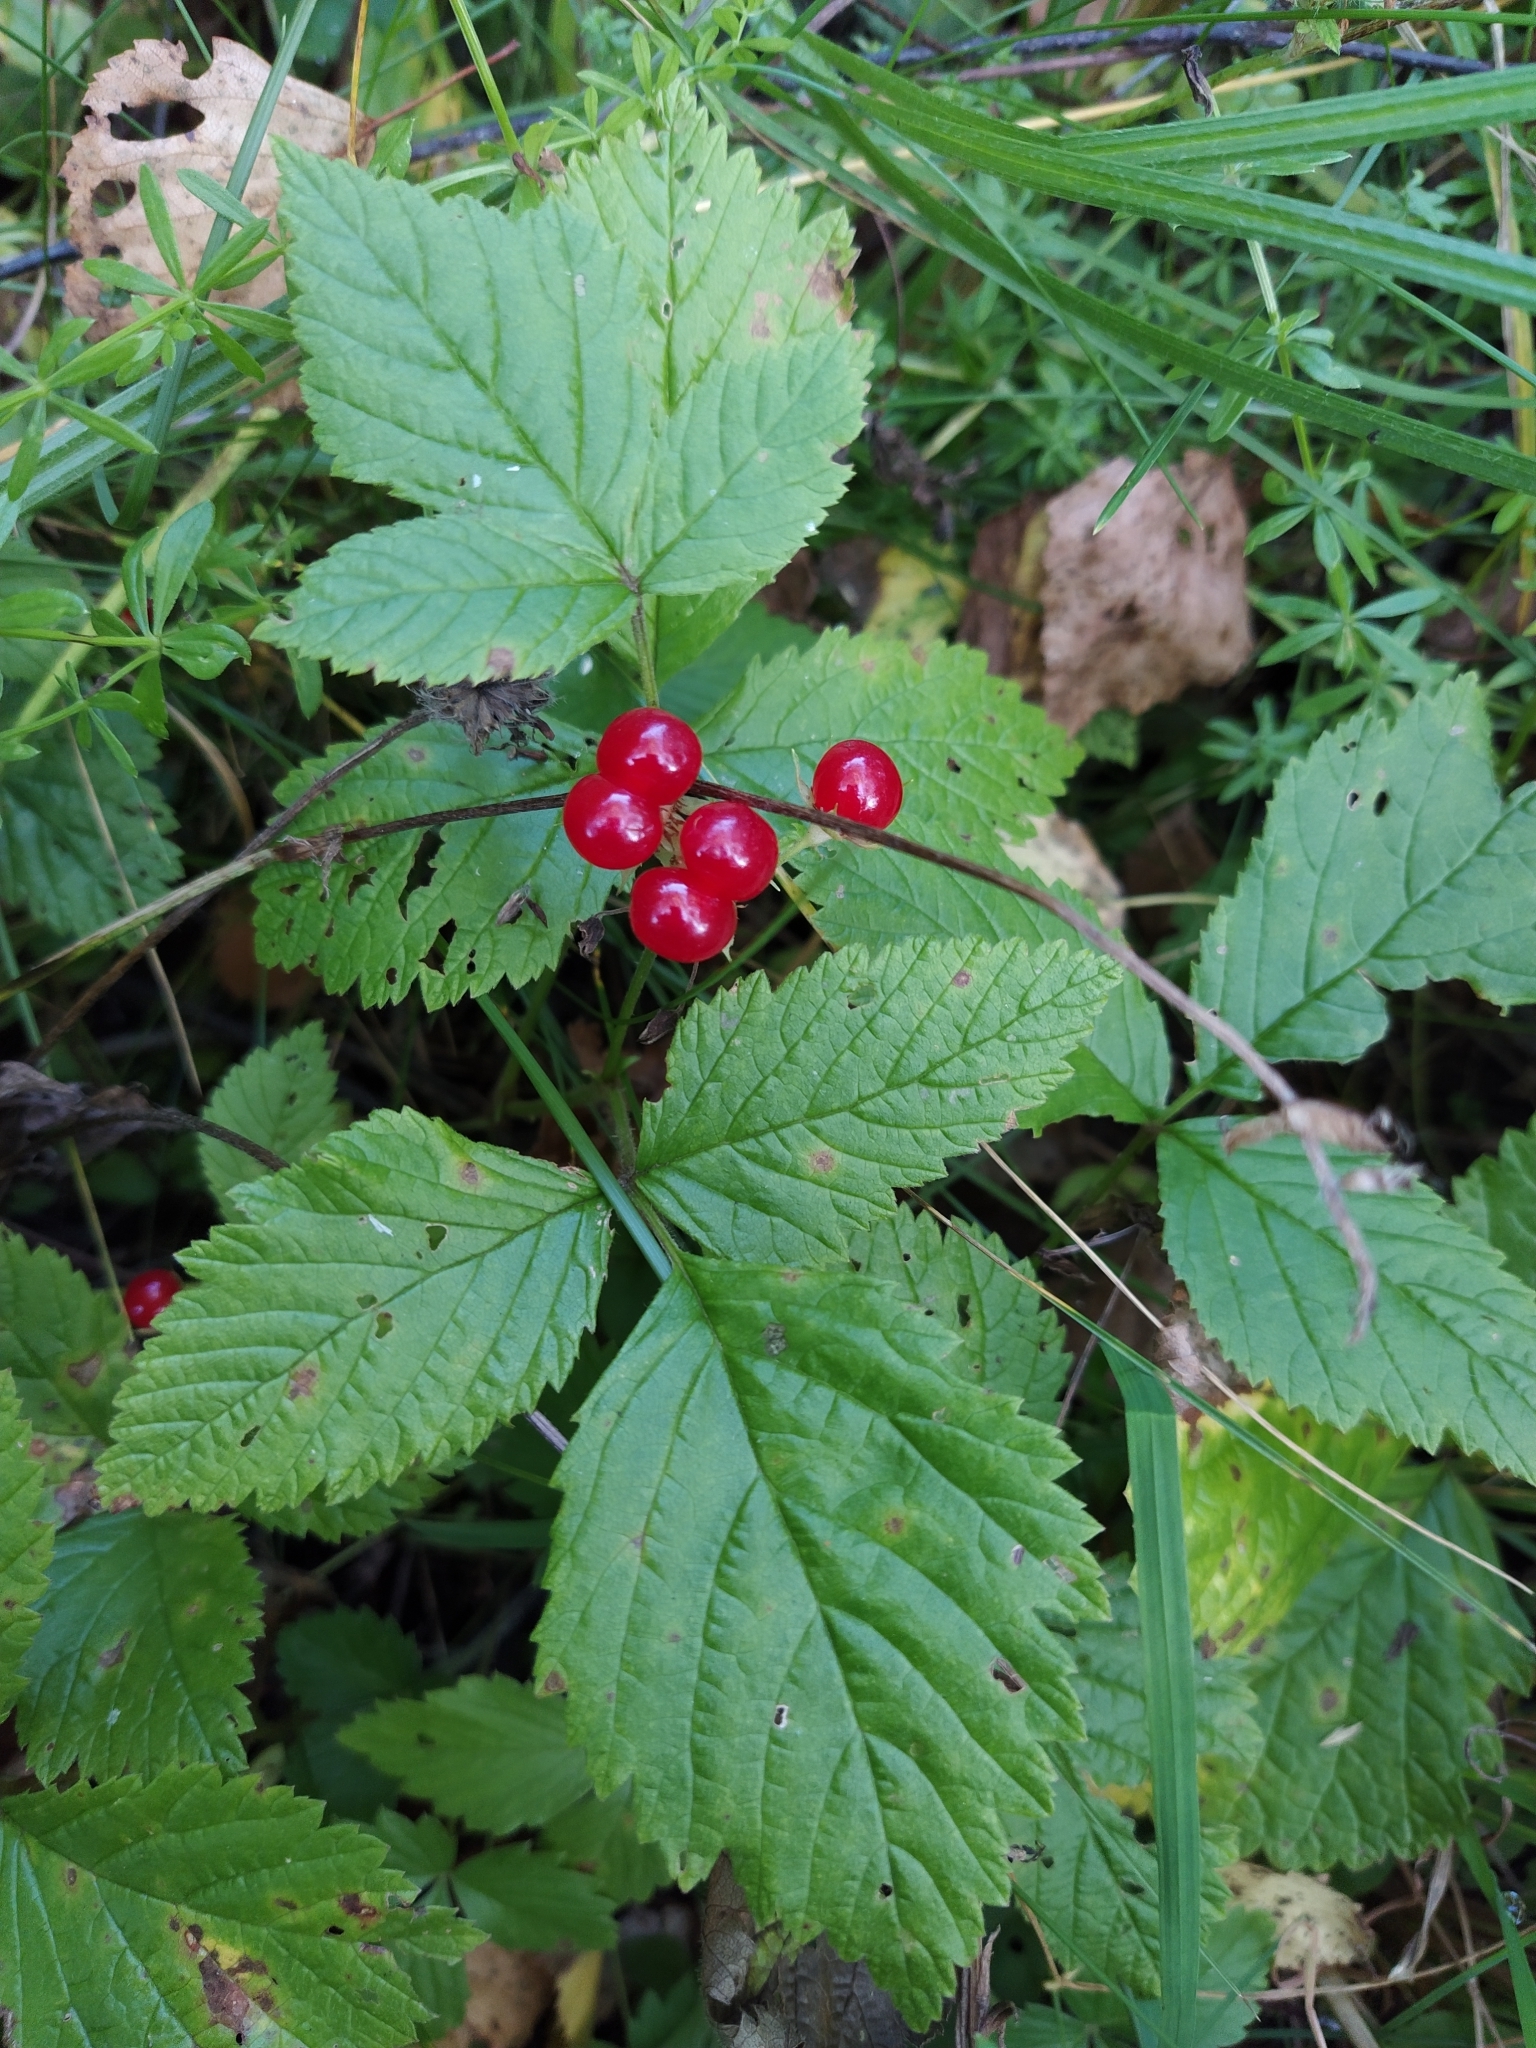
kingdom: Plantae
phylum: Tracheophyta
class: Magnoliopsida
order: Rosales
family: Rosaceae
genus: Rubus
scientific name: Rubus saxatilis
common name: Stone bramble
